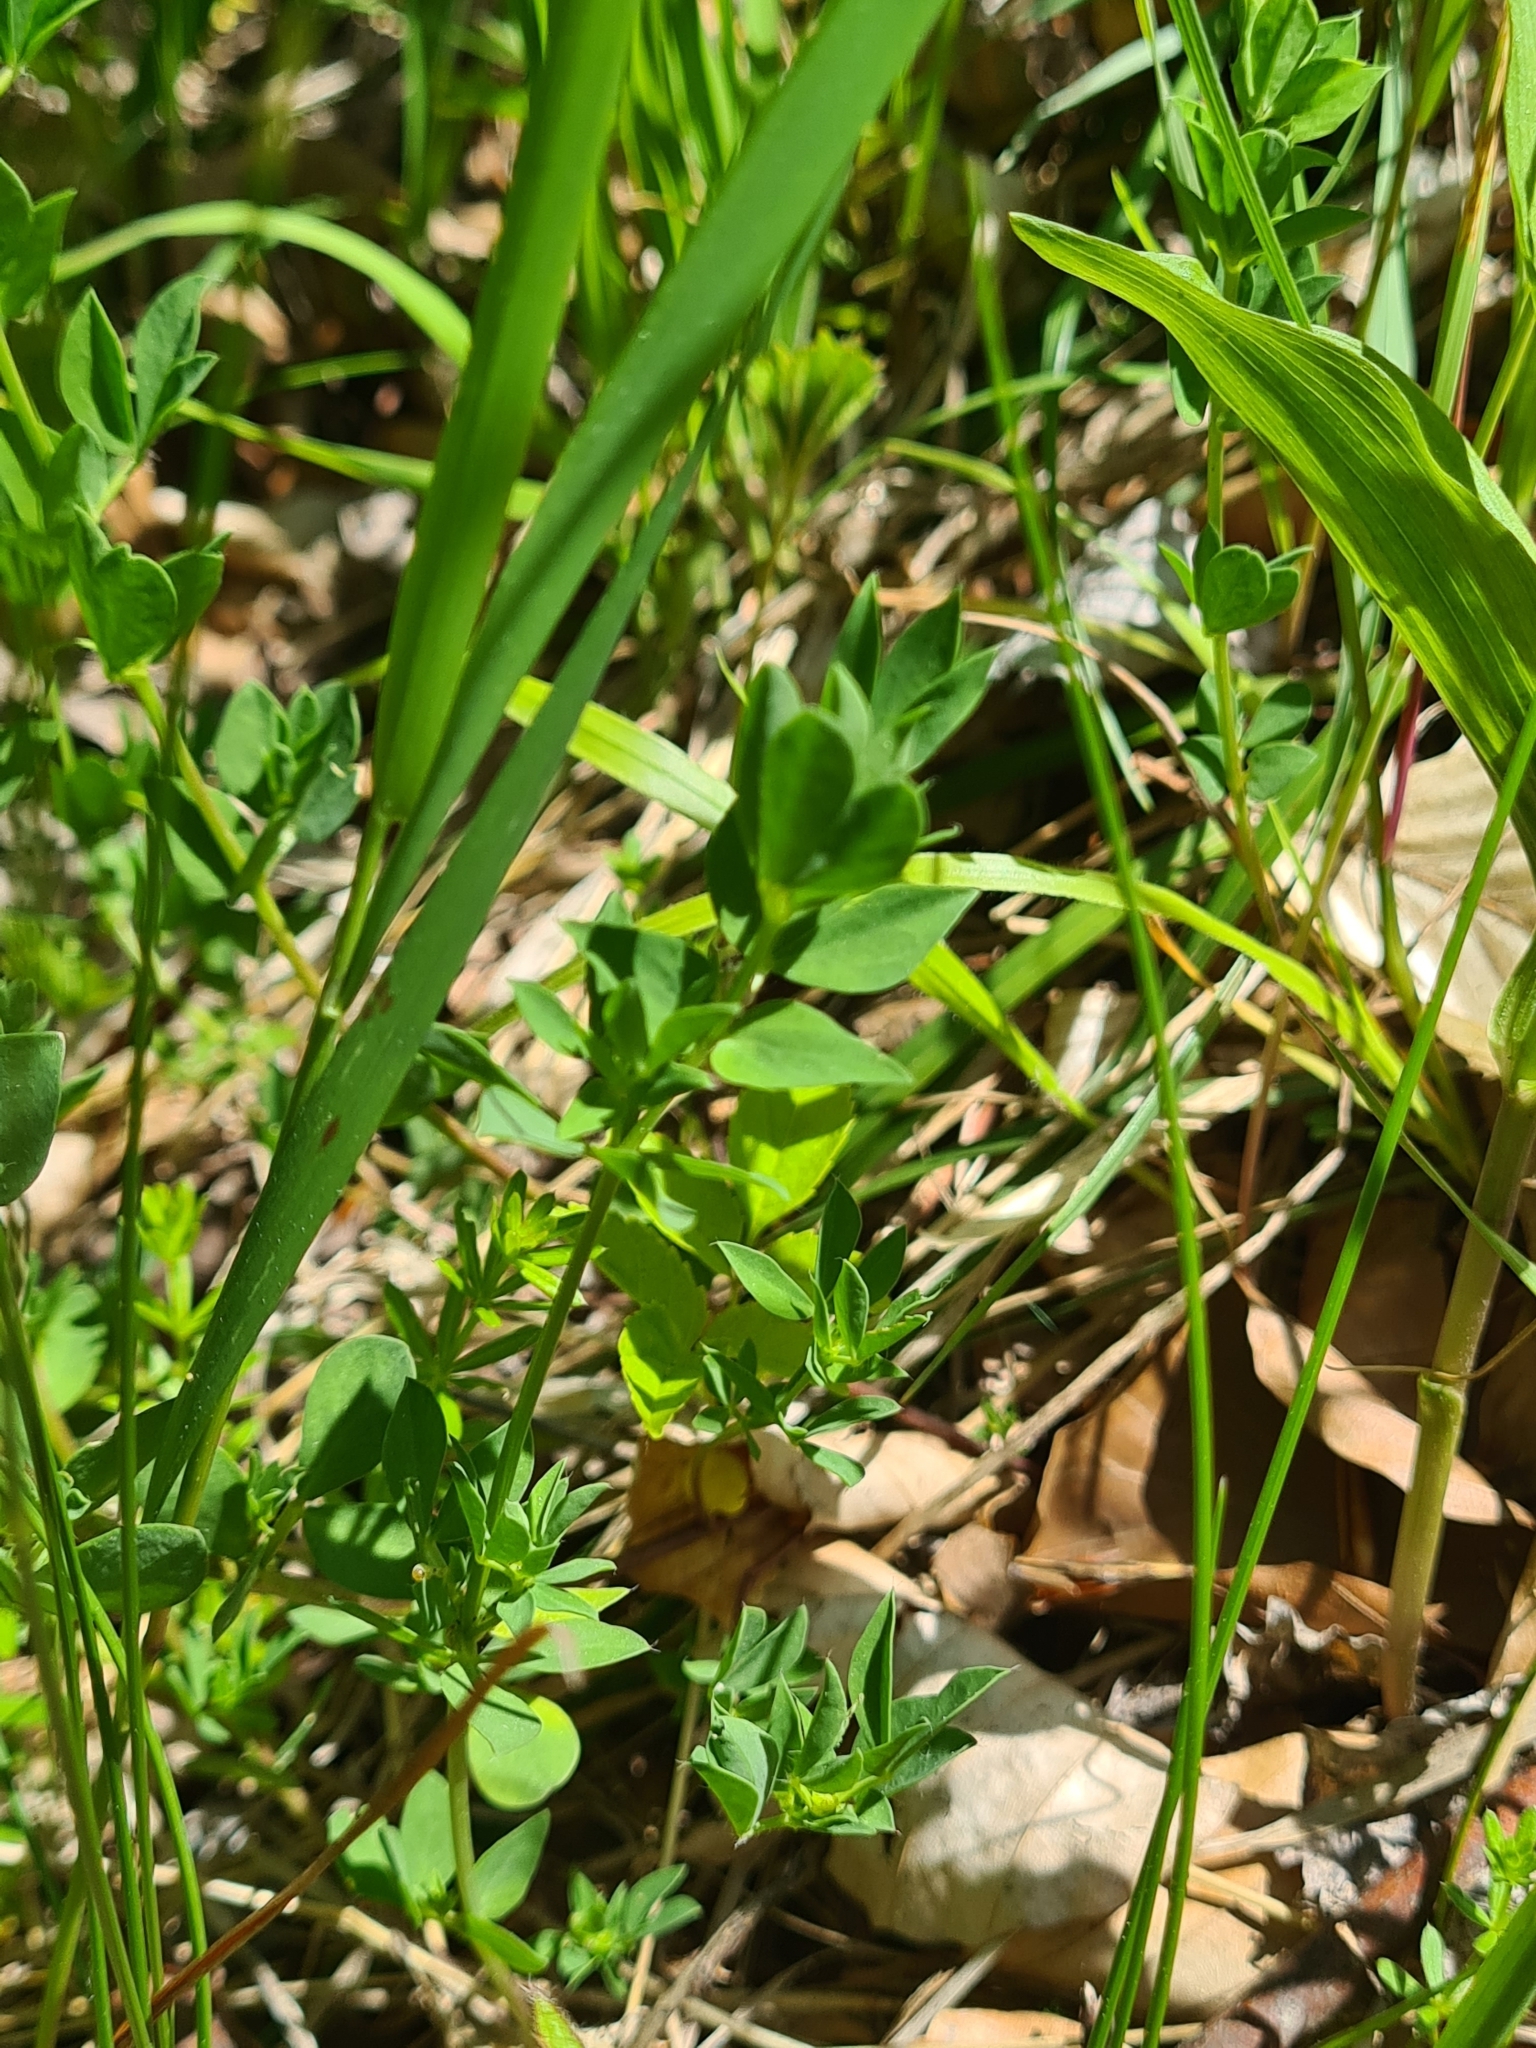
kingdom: Plantae
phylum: Tracheophyta
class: Magnoliopsida
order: Fabales
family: Fabaceae
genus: Lotus
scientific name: Lotus corniculatus
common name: Common bird's-foot-trefoil
